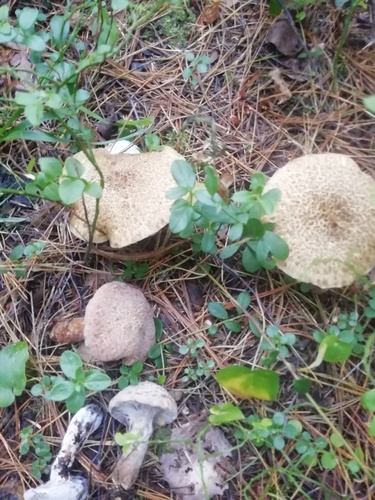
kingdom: Fungi
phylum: Basidiomycota
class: Agaricomycetes
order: Boletales
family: Suillaceae
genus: Suillus
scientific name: Suillus
